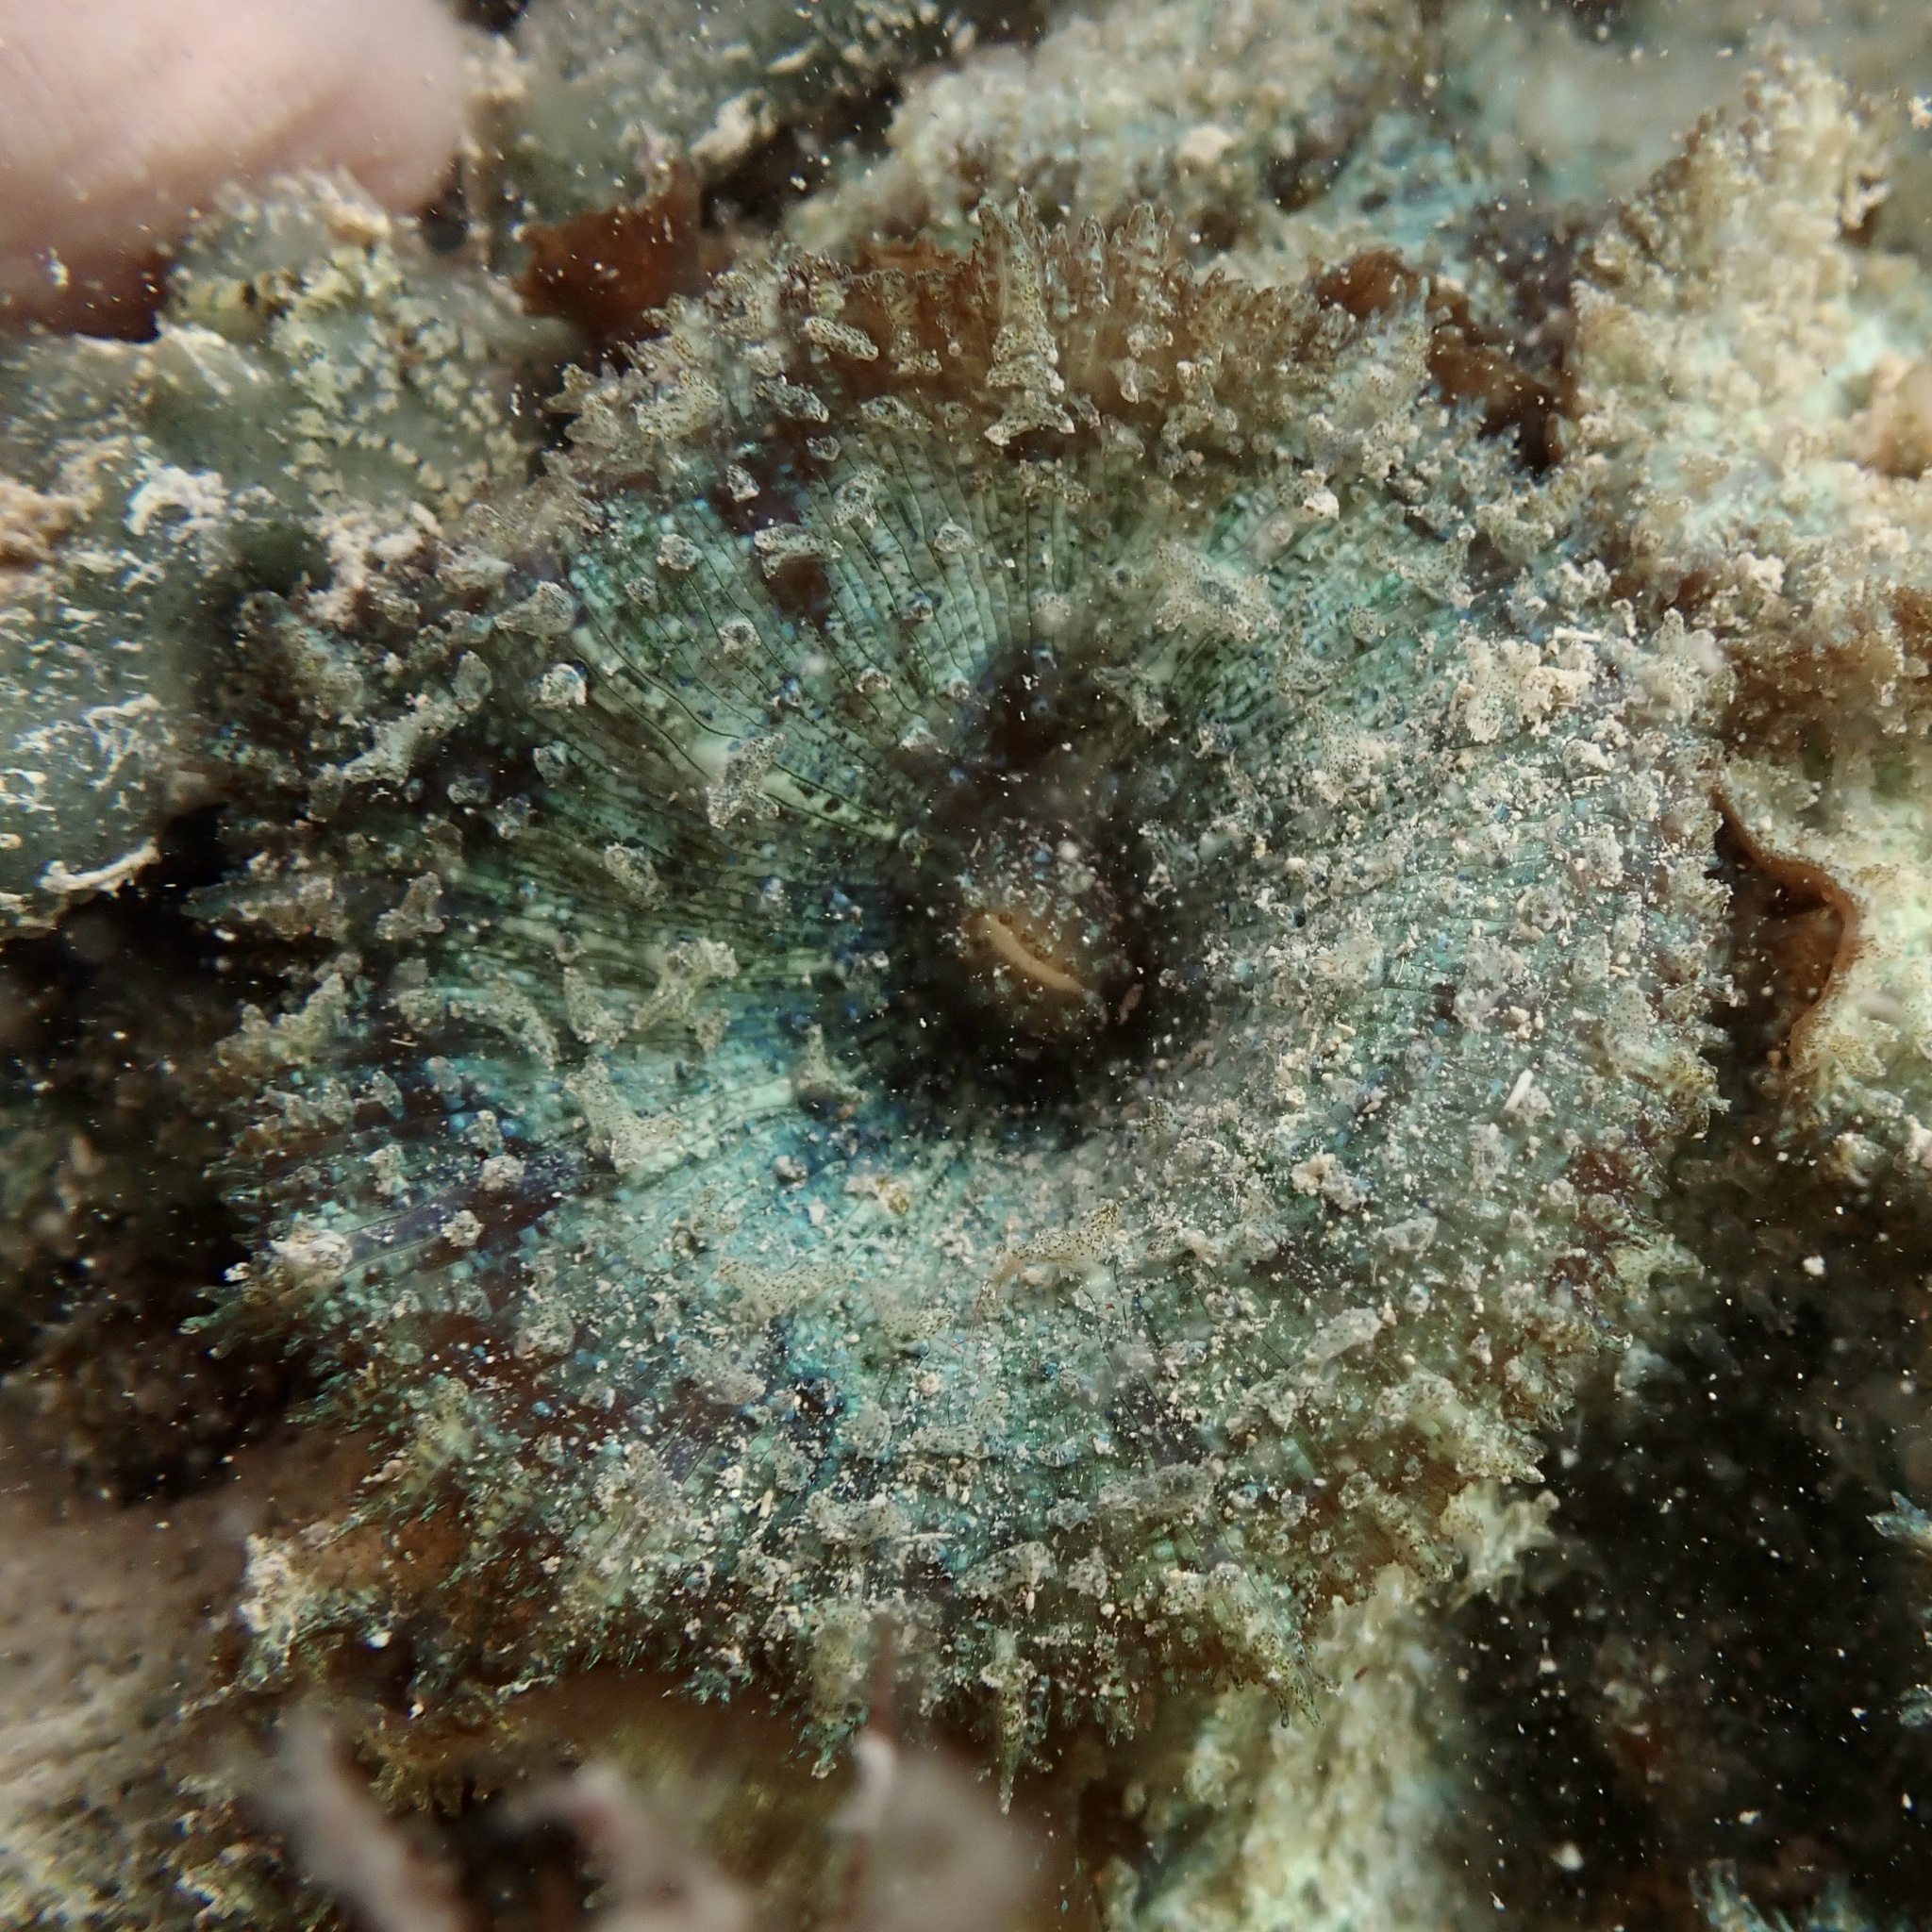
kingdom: Animalia
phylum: Cnidaria
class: Anthozoa
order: Corallimorpharia
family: Discosomidae
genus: Discosoma
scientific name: Discosoma carlgreni
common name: Forked-tentacle corallimorpharian
